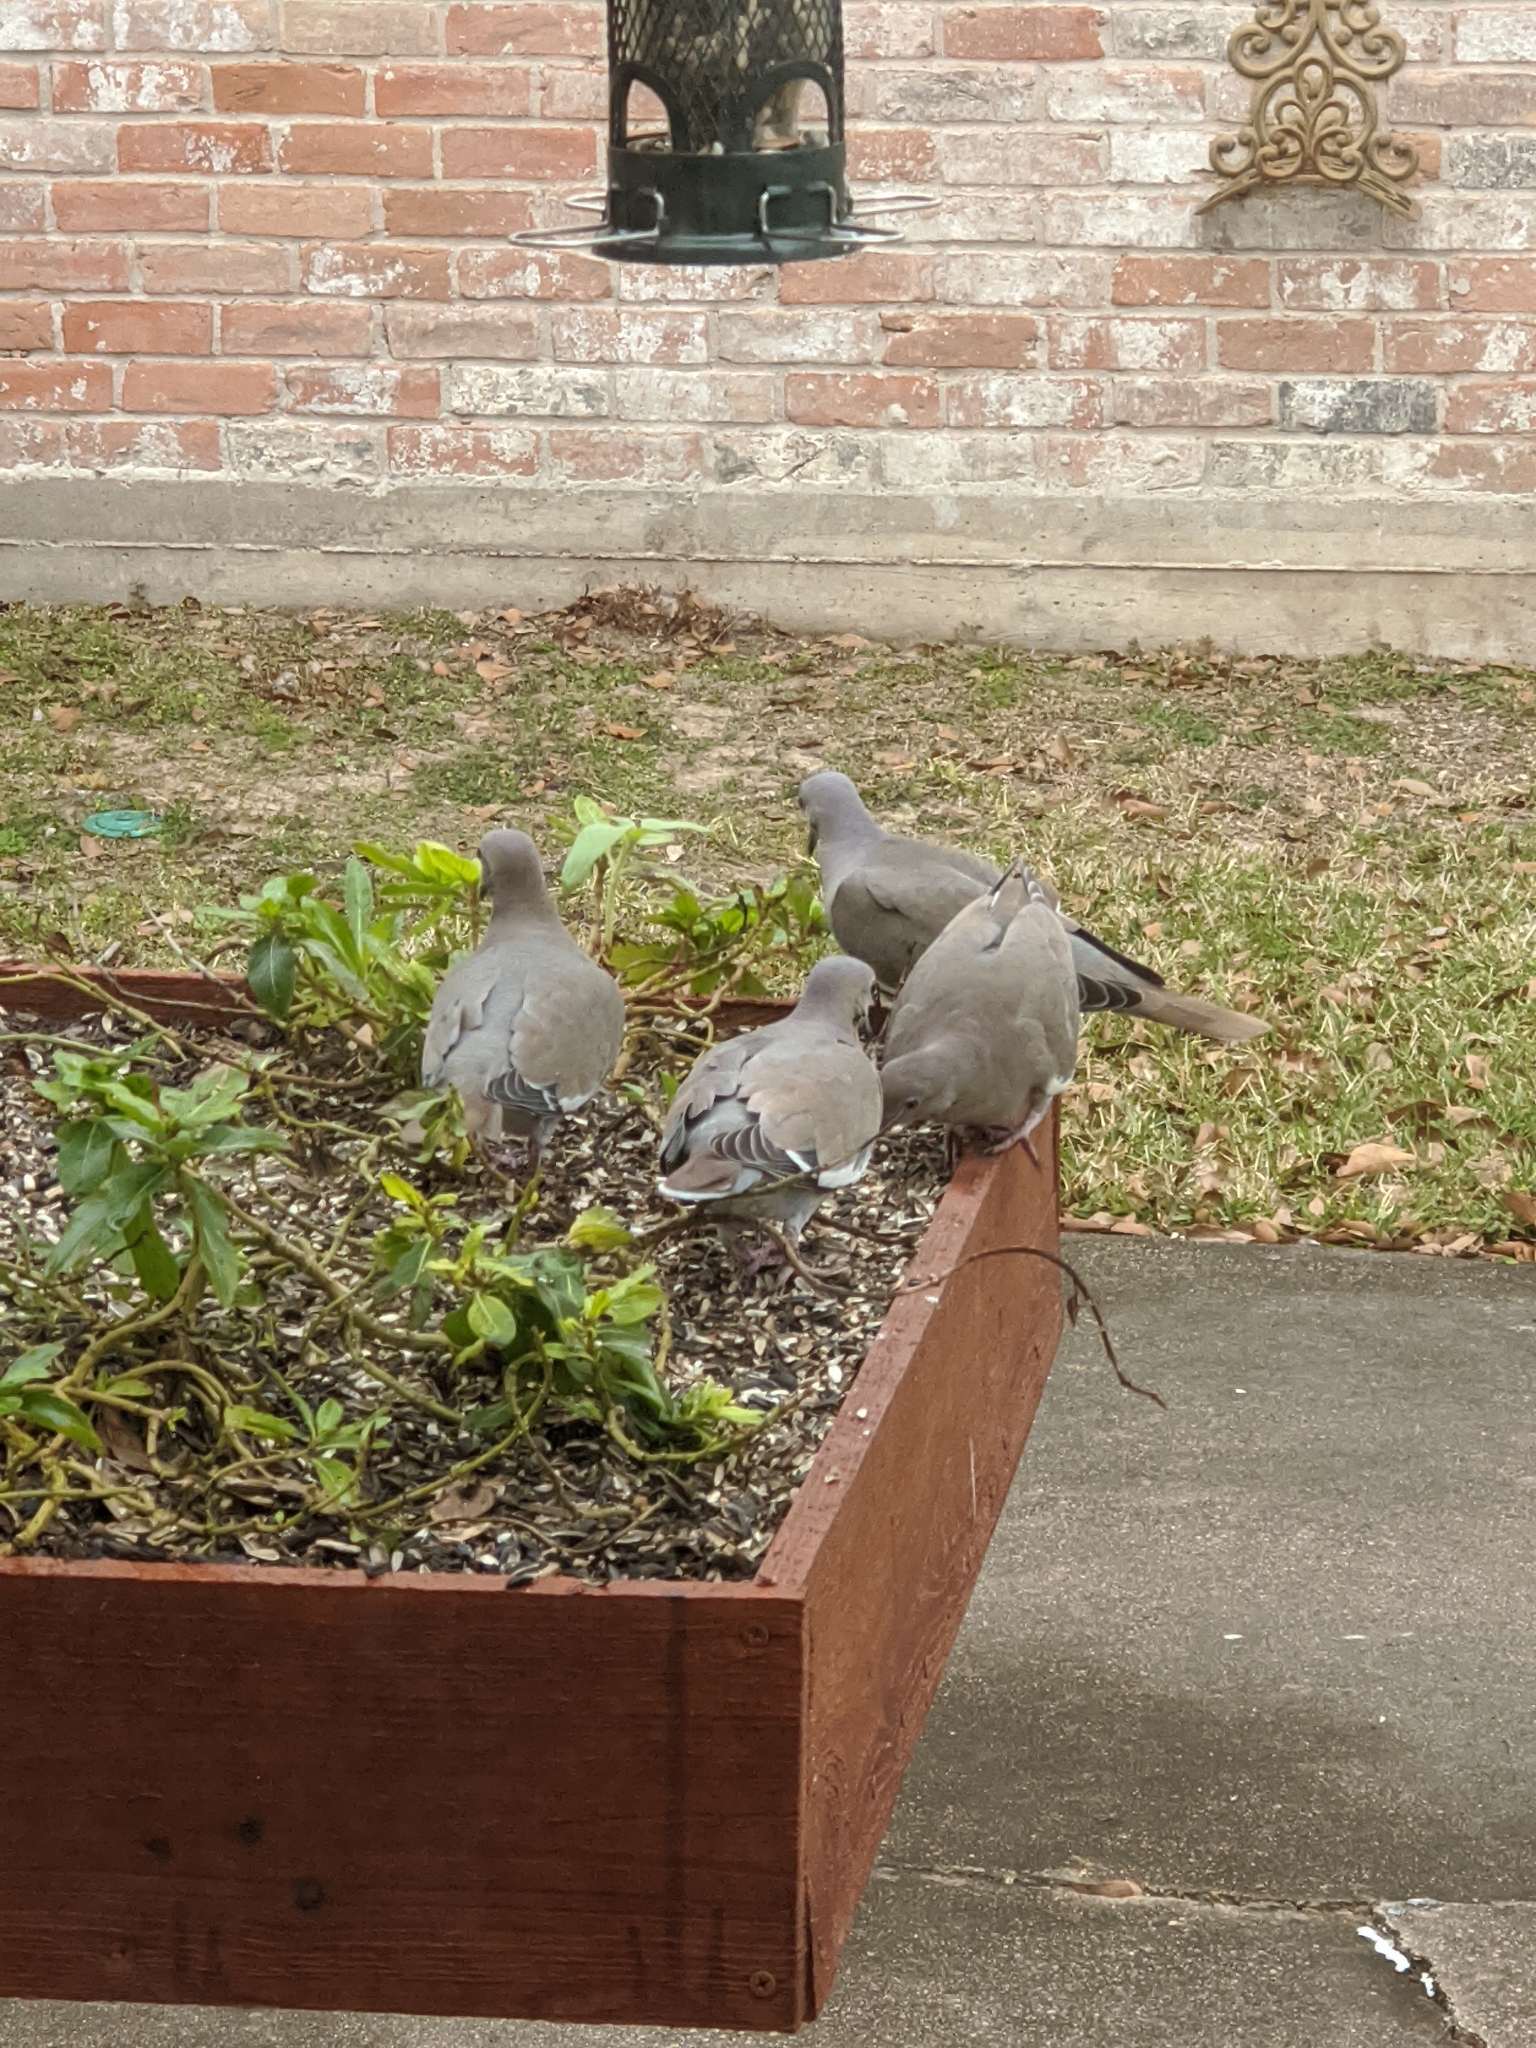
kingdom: Animalia
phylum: Chordata
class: Aves
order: Columbiformes
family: Columbidae
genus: Zenaida
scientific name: Zenaida asiatica
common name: White-winged dove
